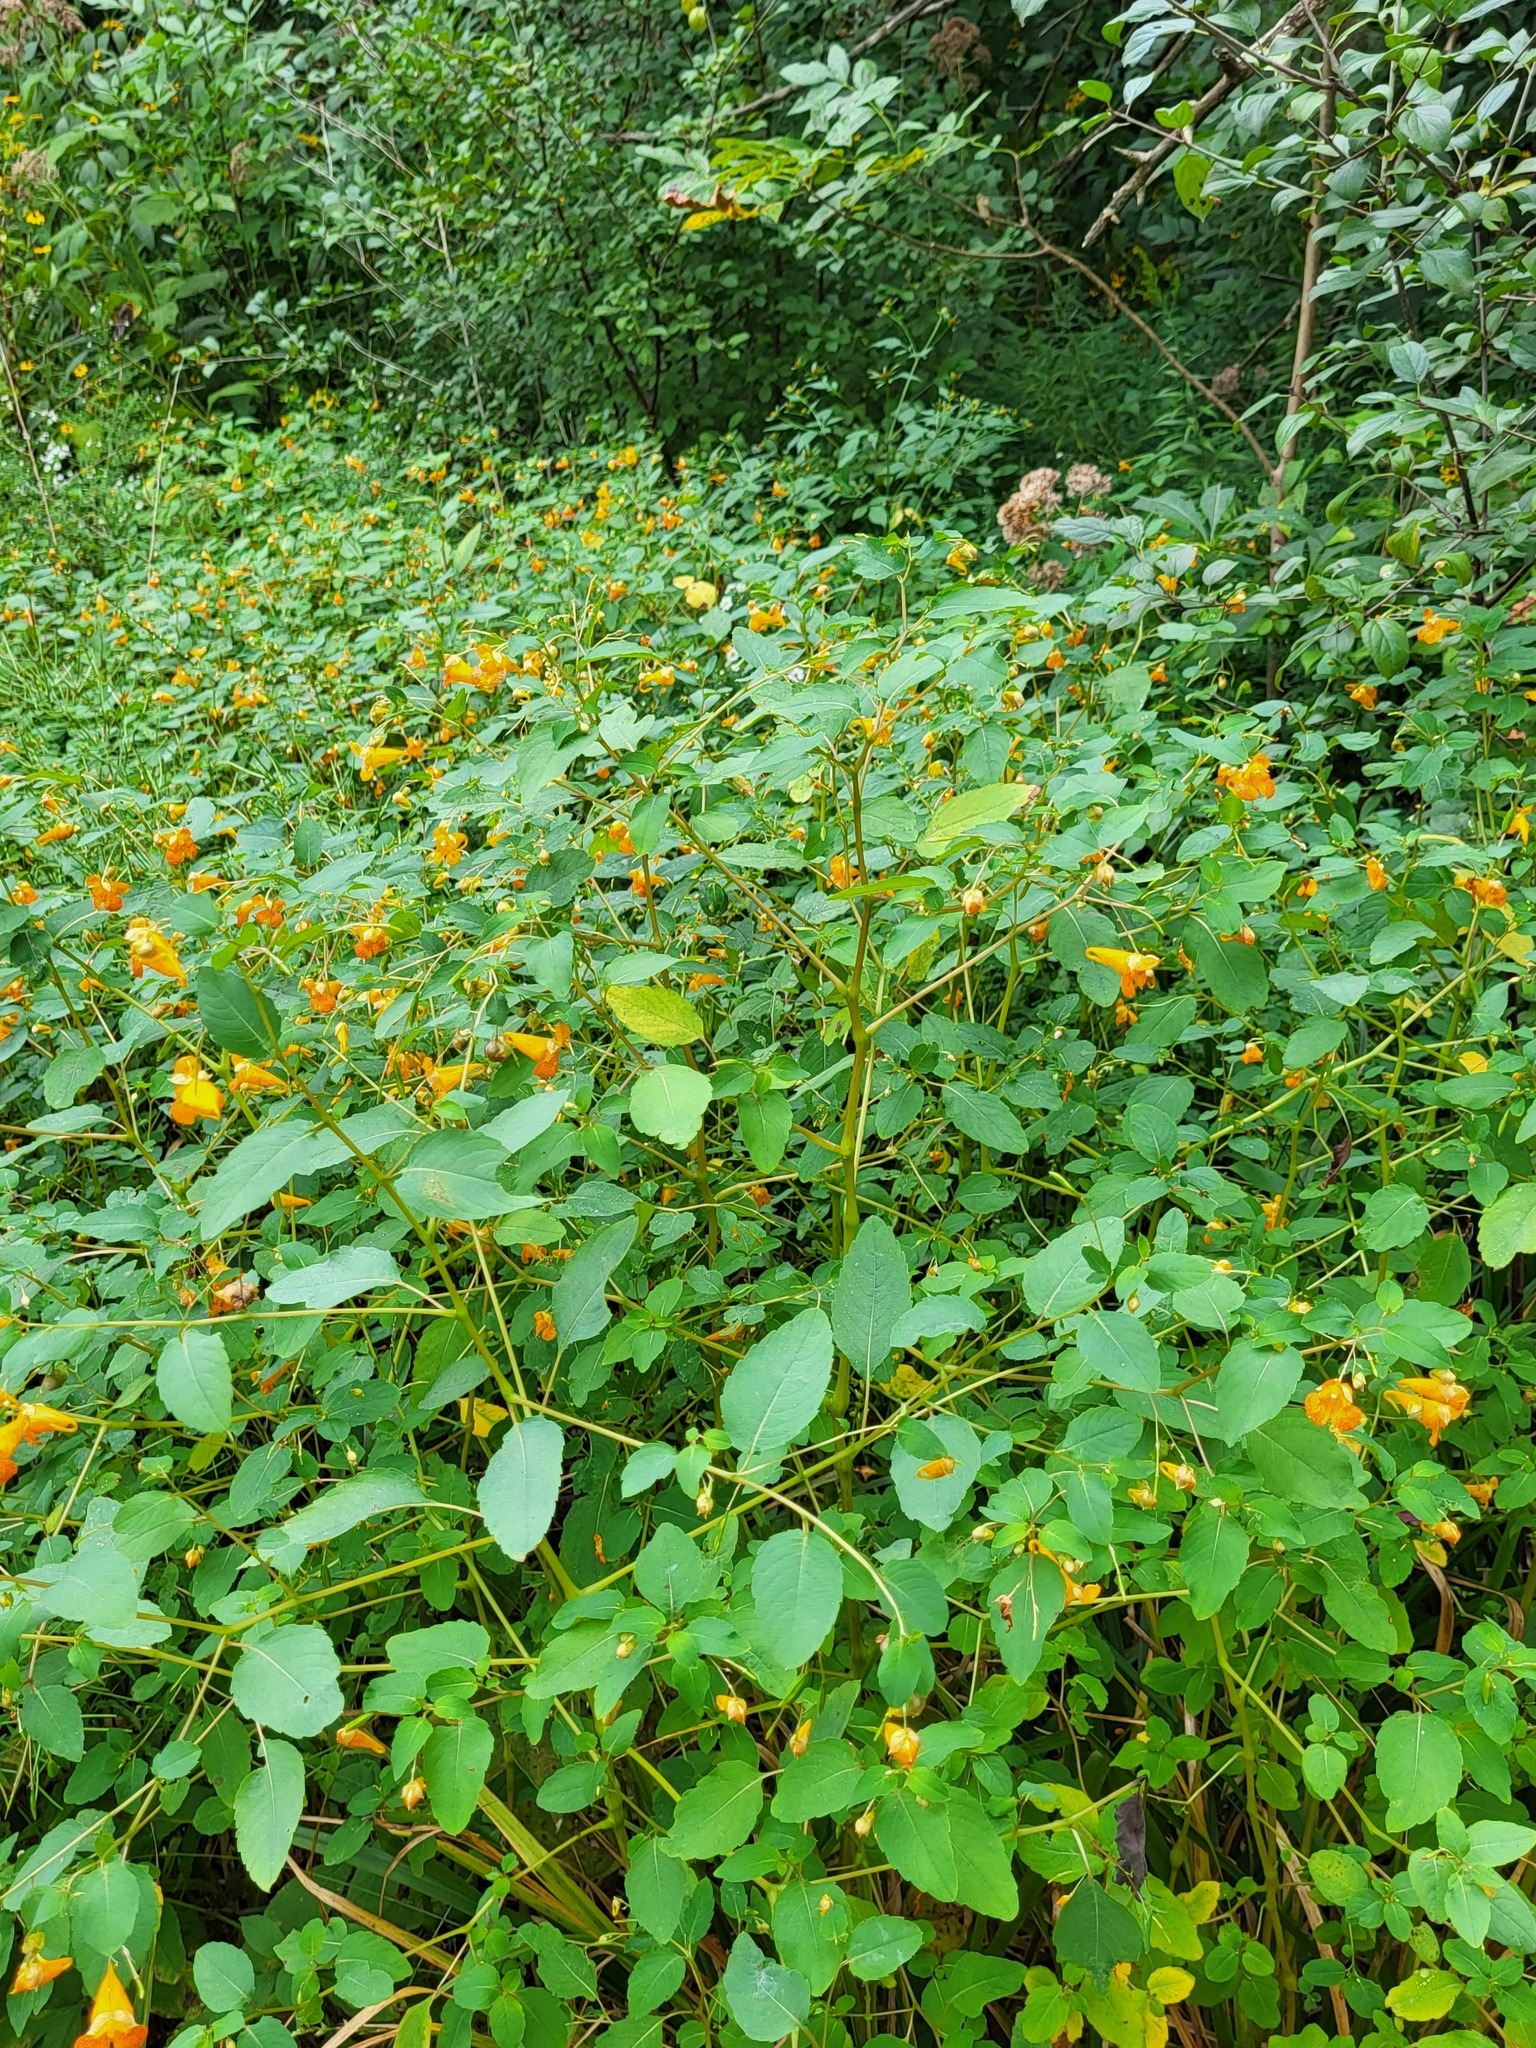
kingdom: Plantae
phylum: Tracheophyta
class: Magnoliopsida
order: Ericales
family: Balsaminaceae
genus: Impatiens
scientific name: Impatiens capensis
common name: Orange balsam
